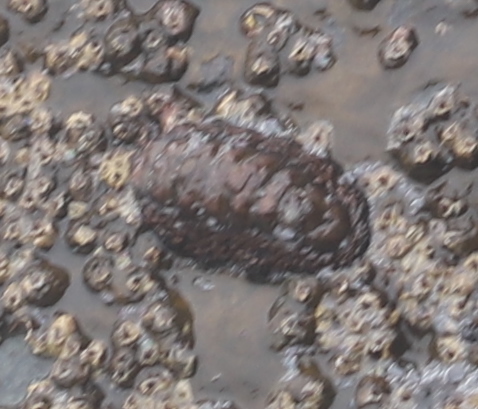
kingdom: Animalia
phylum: Mollusca
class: Polyplacophora
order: Chitonida
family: Chitonidae
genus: Enoplochiton
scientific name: Enoplochiton niger
